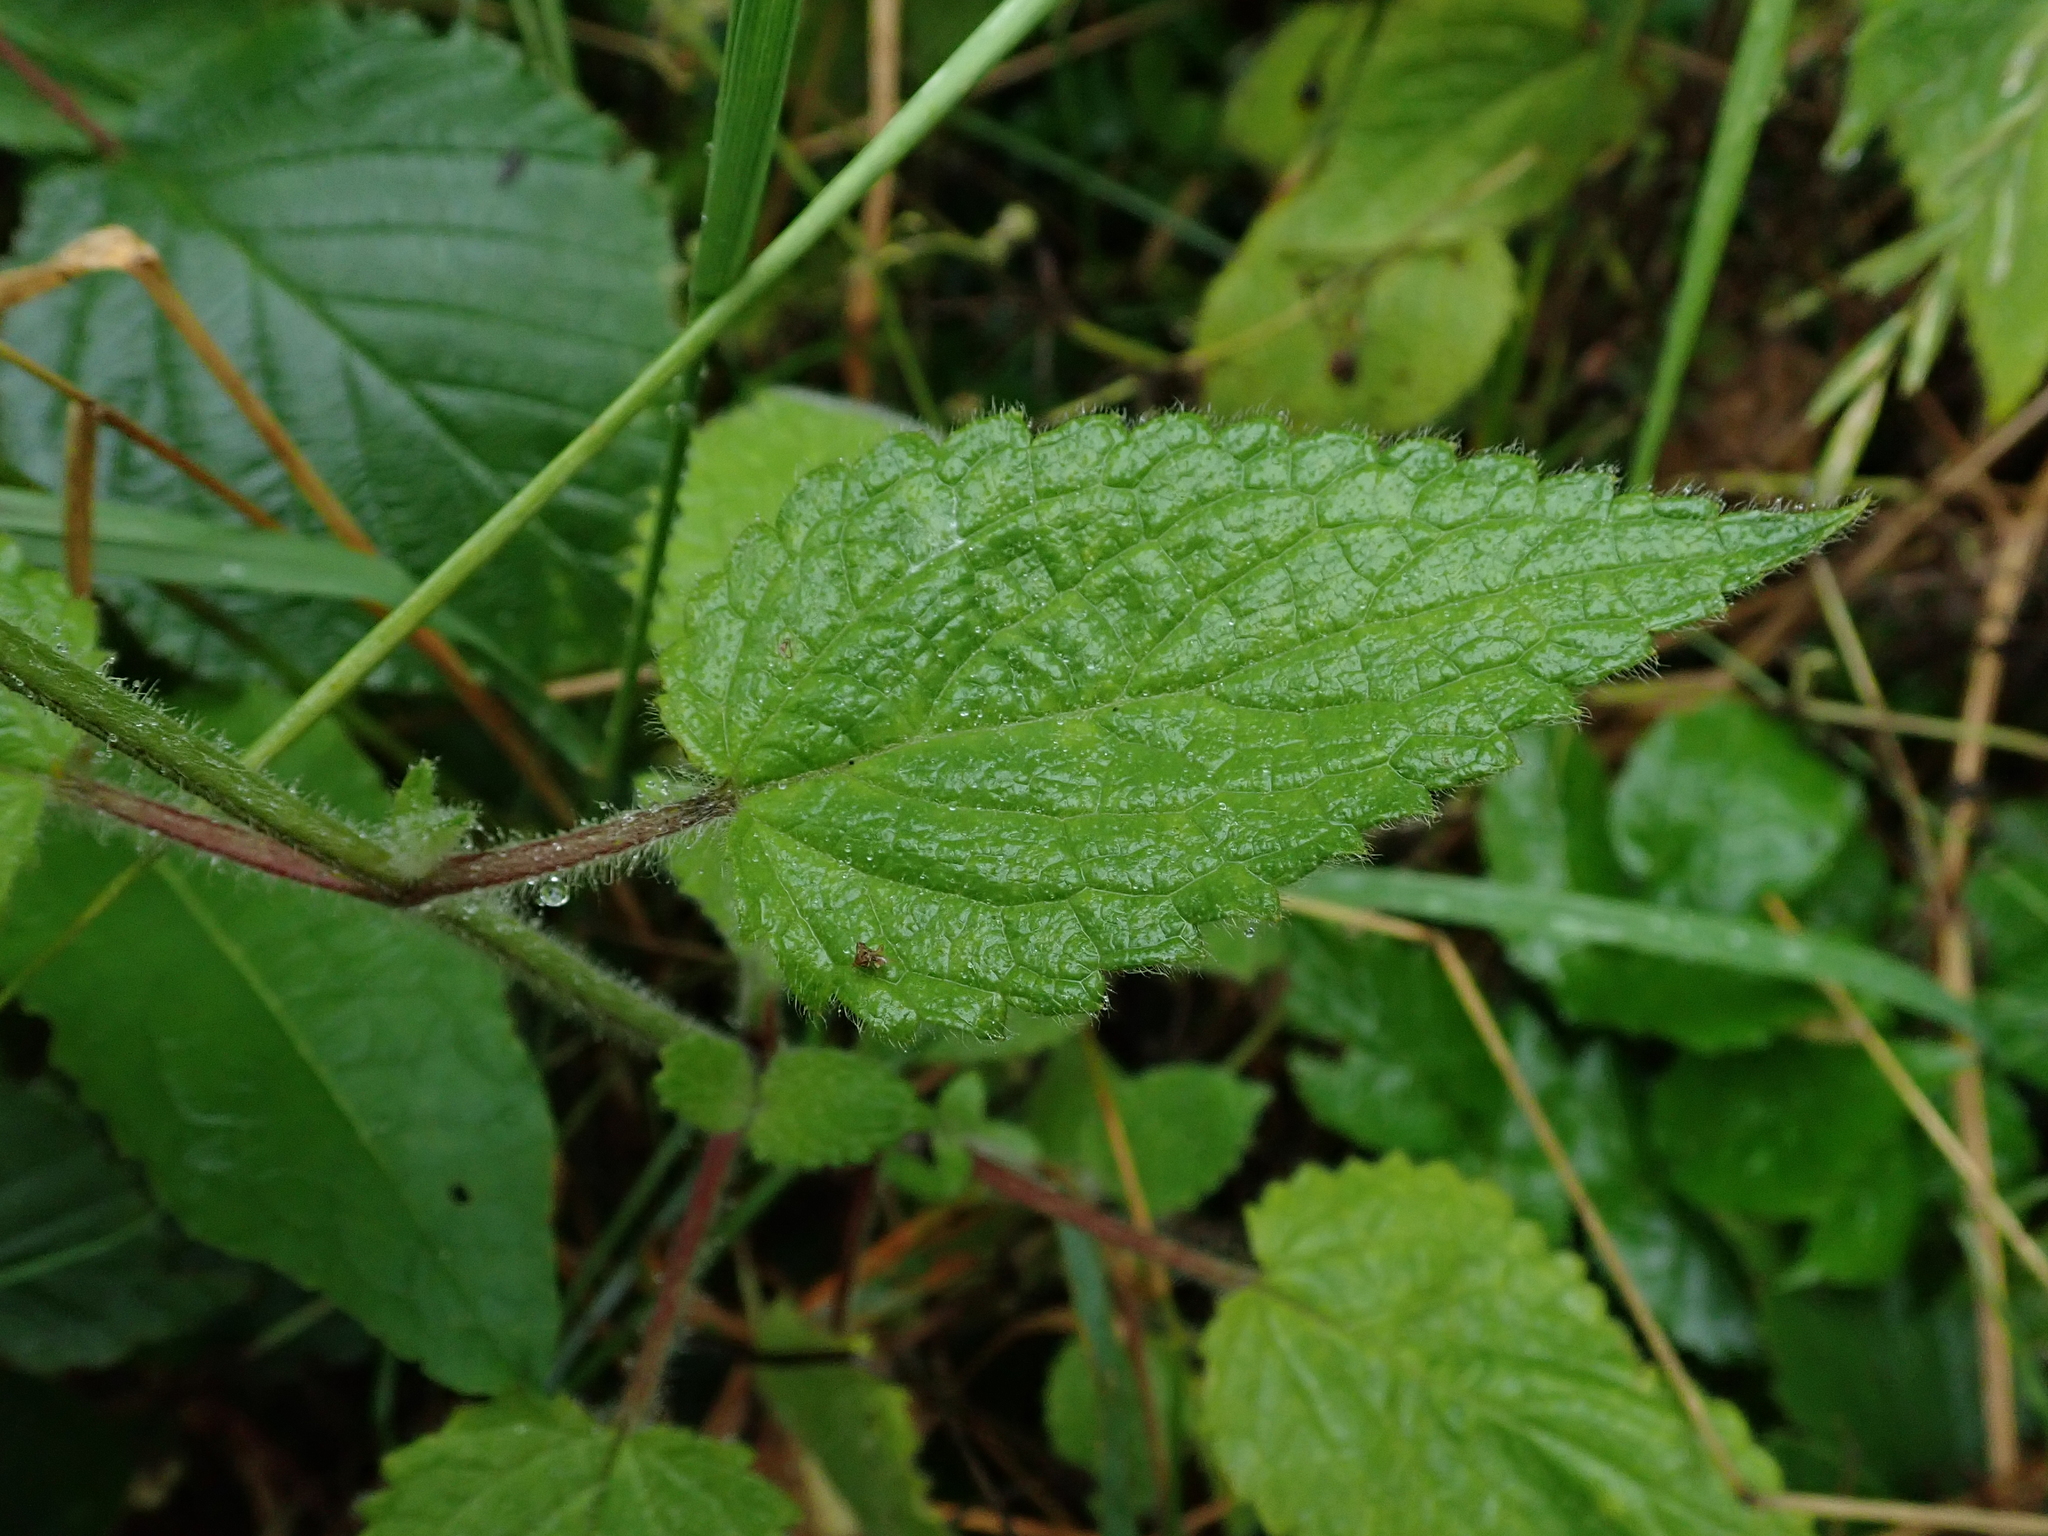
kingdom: Plantae
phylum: Tracheophyta
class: Magnoliopsida
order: Lamiales
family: Lamiaceae
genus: Stachys
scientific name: Stachys sylvatica
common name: Hedge woundwort
